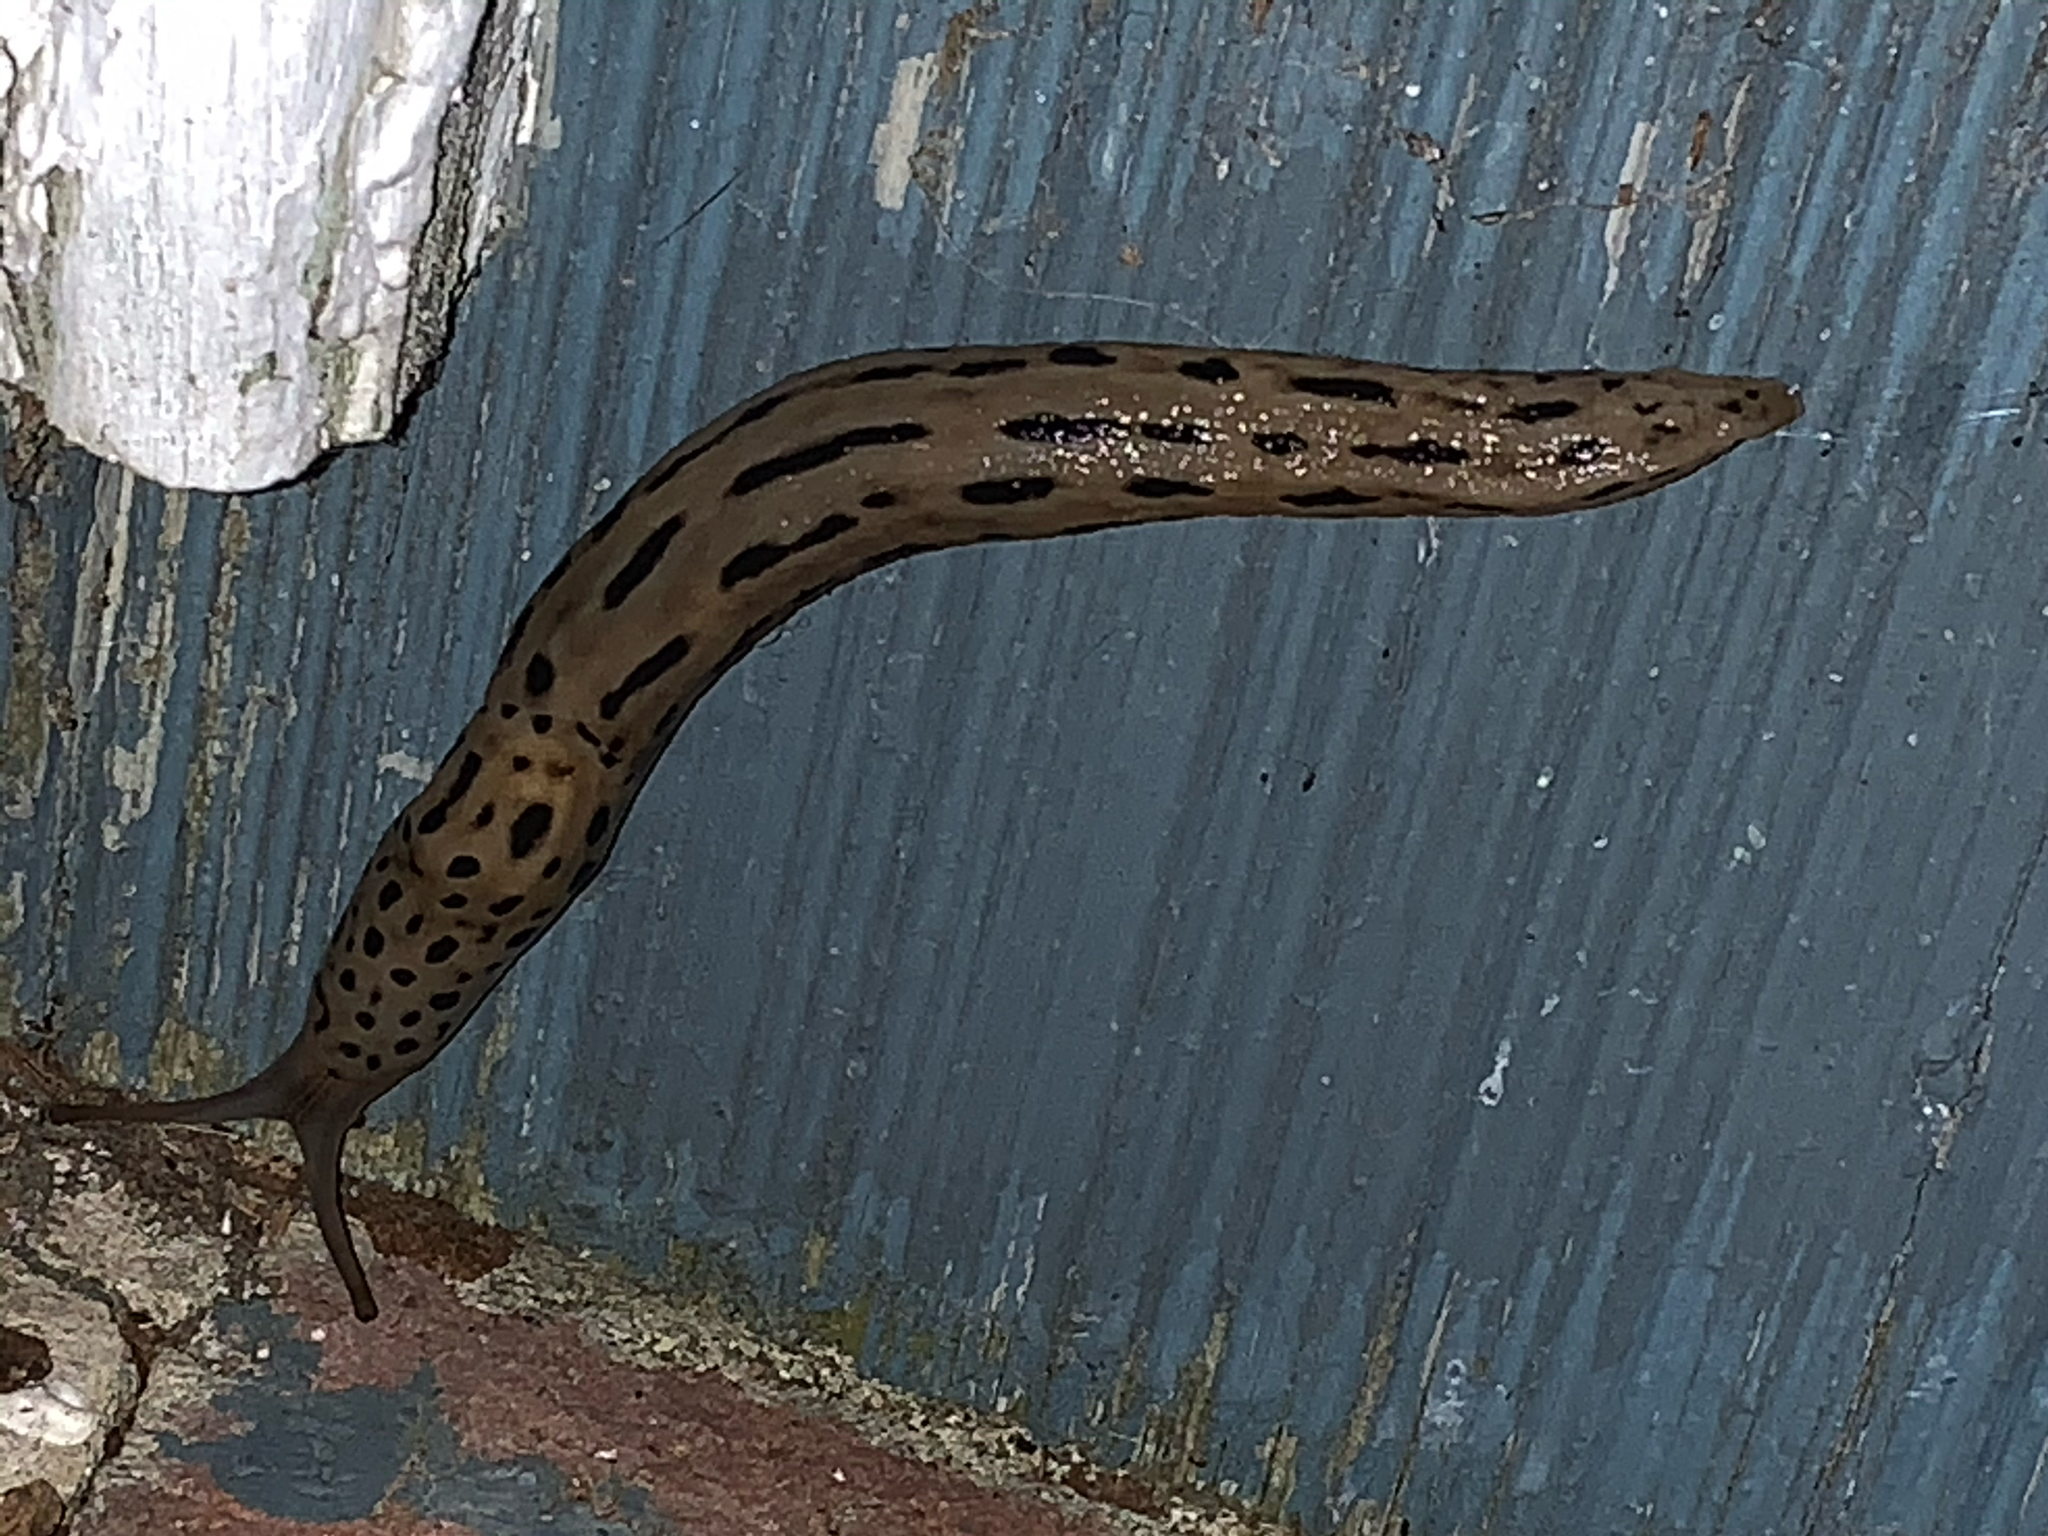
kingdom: Animalia
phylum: Mollusca
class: Gastropoda
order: Stylommatophora
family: Limacidae
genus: Limax
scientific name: Limax maximus
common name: Great grey slug
